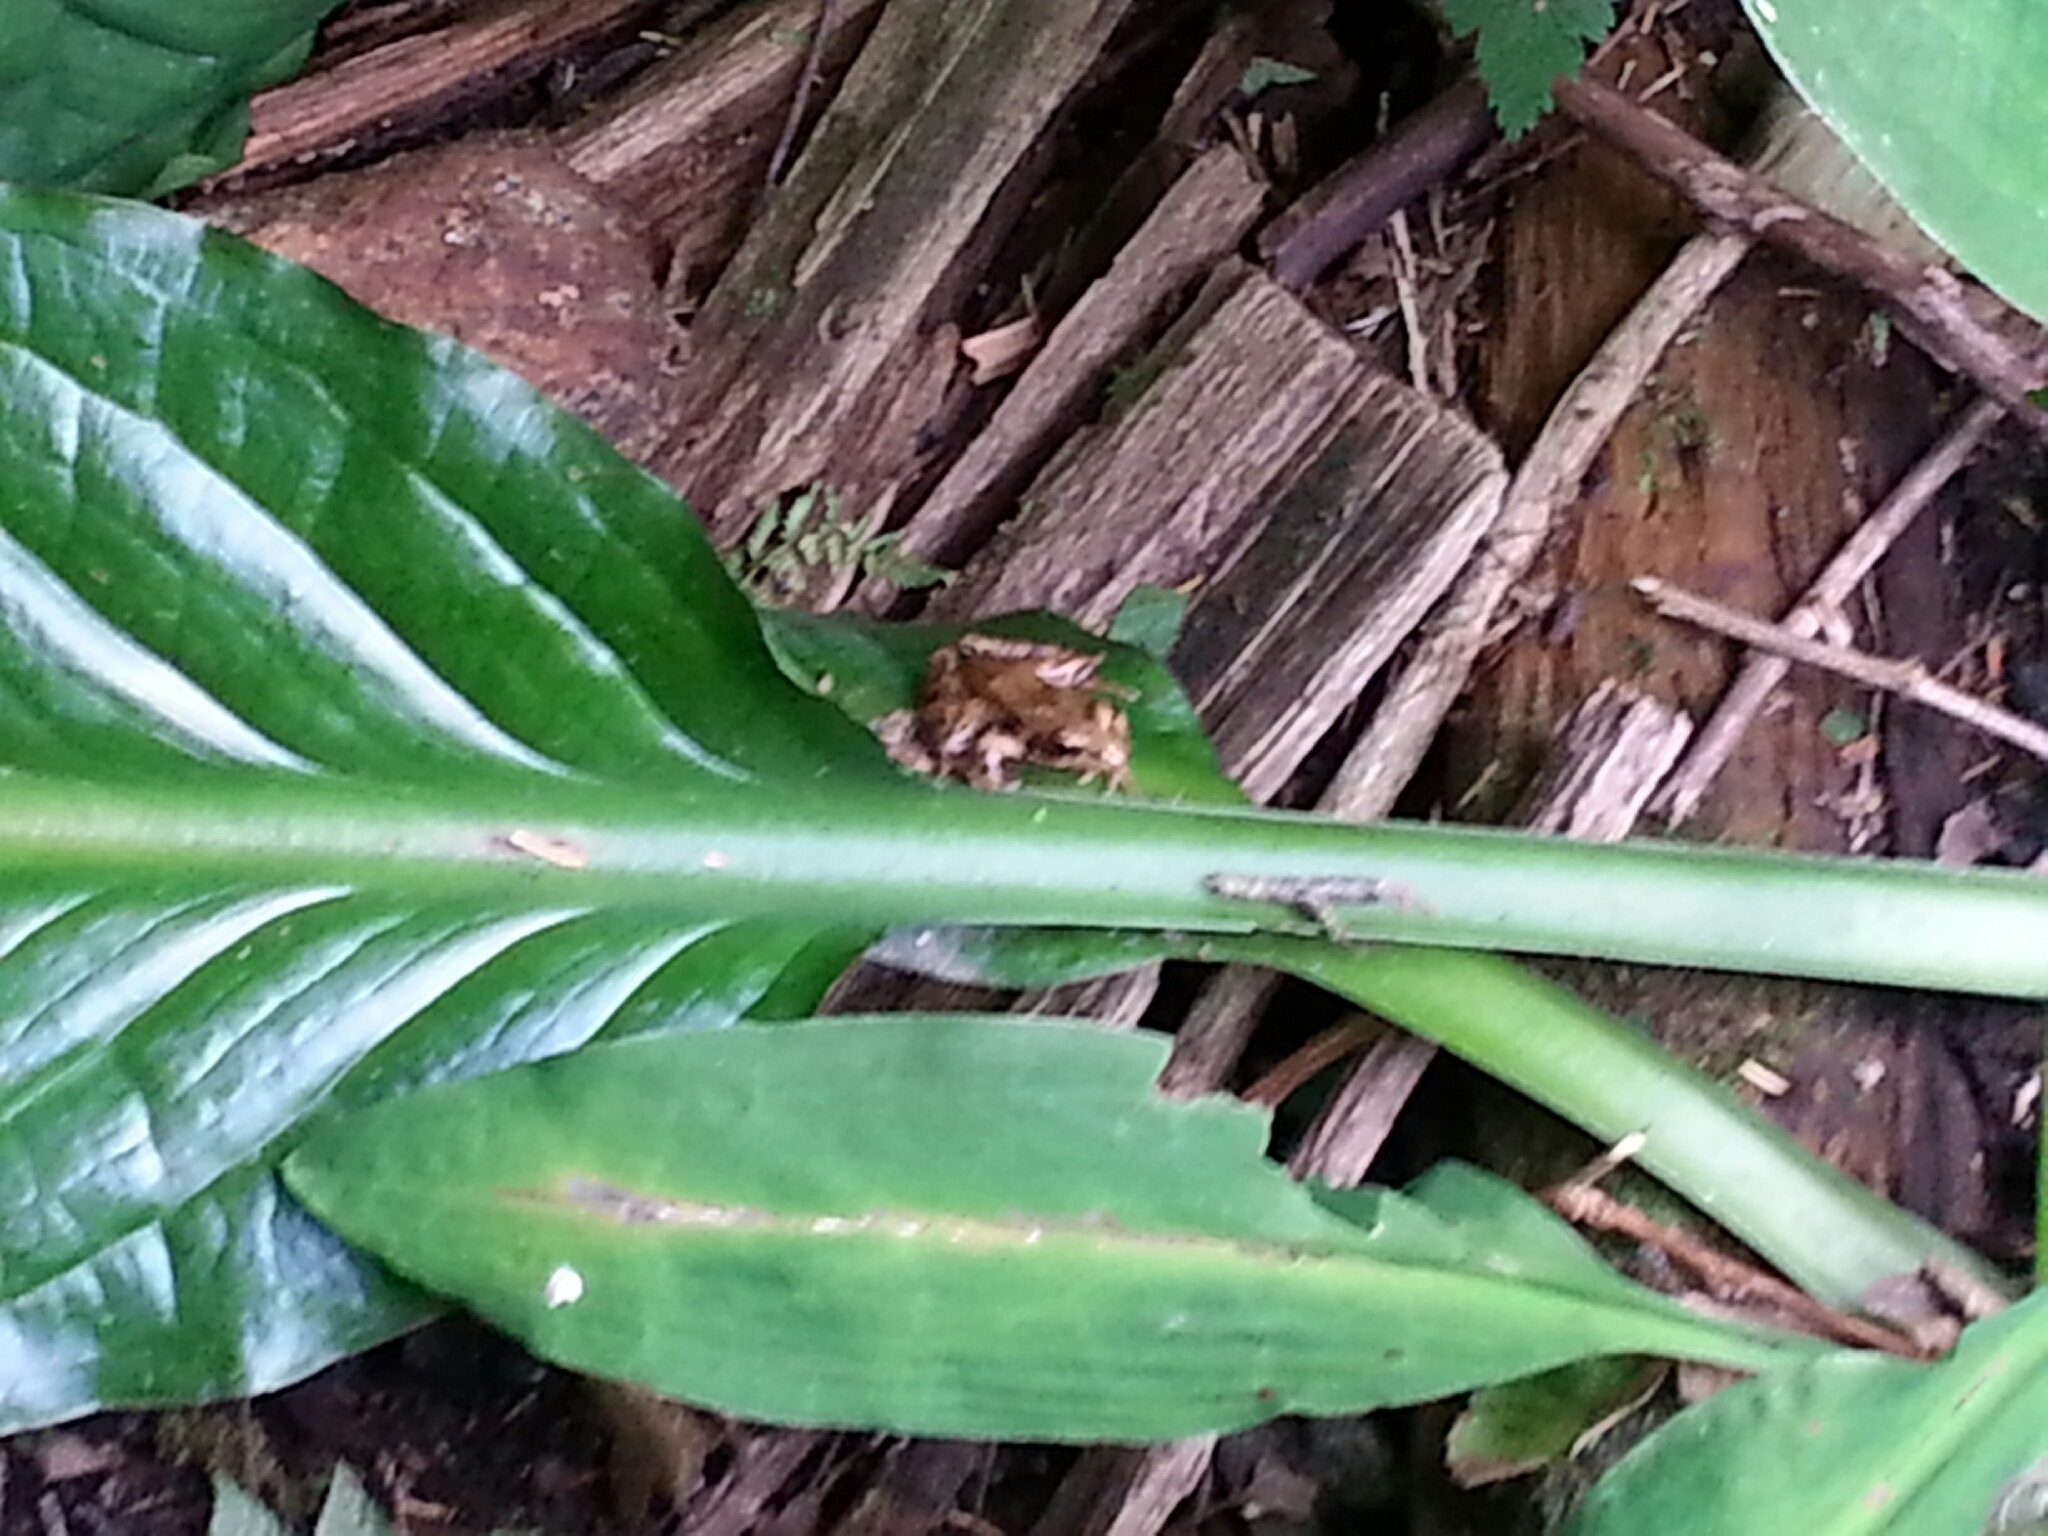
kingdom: Animalia
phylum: Chordata
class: Amphibia
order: Anura
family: Ranidae
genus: Rana
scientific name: Rana aurora
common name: Red-legged frog
